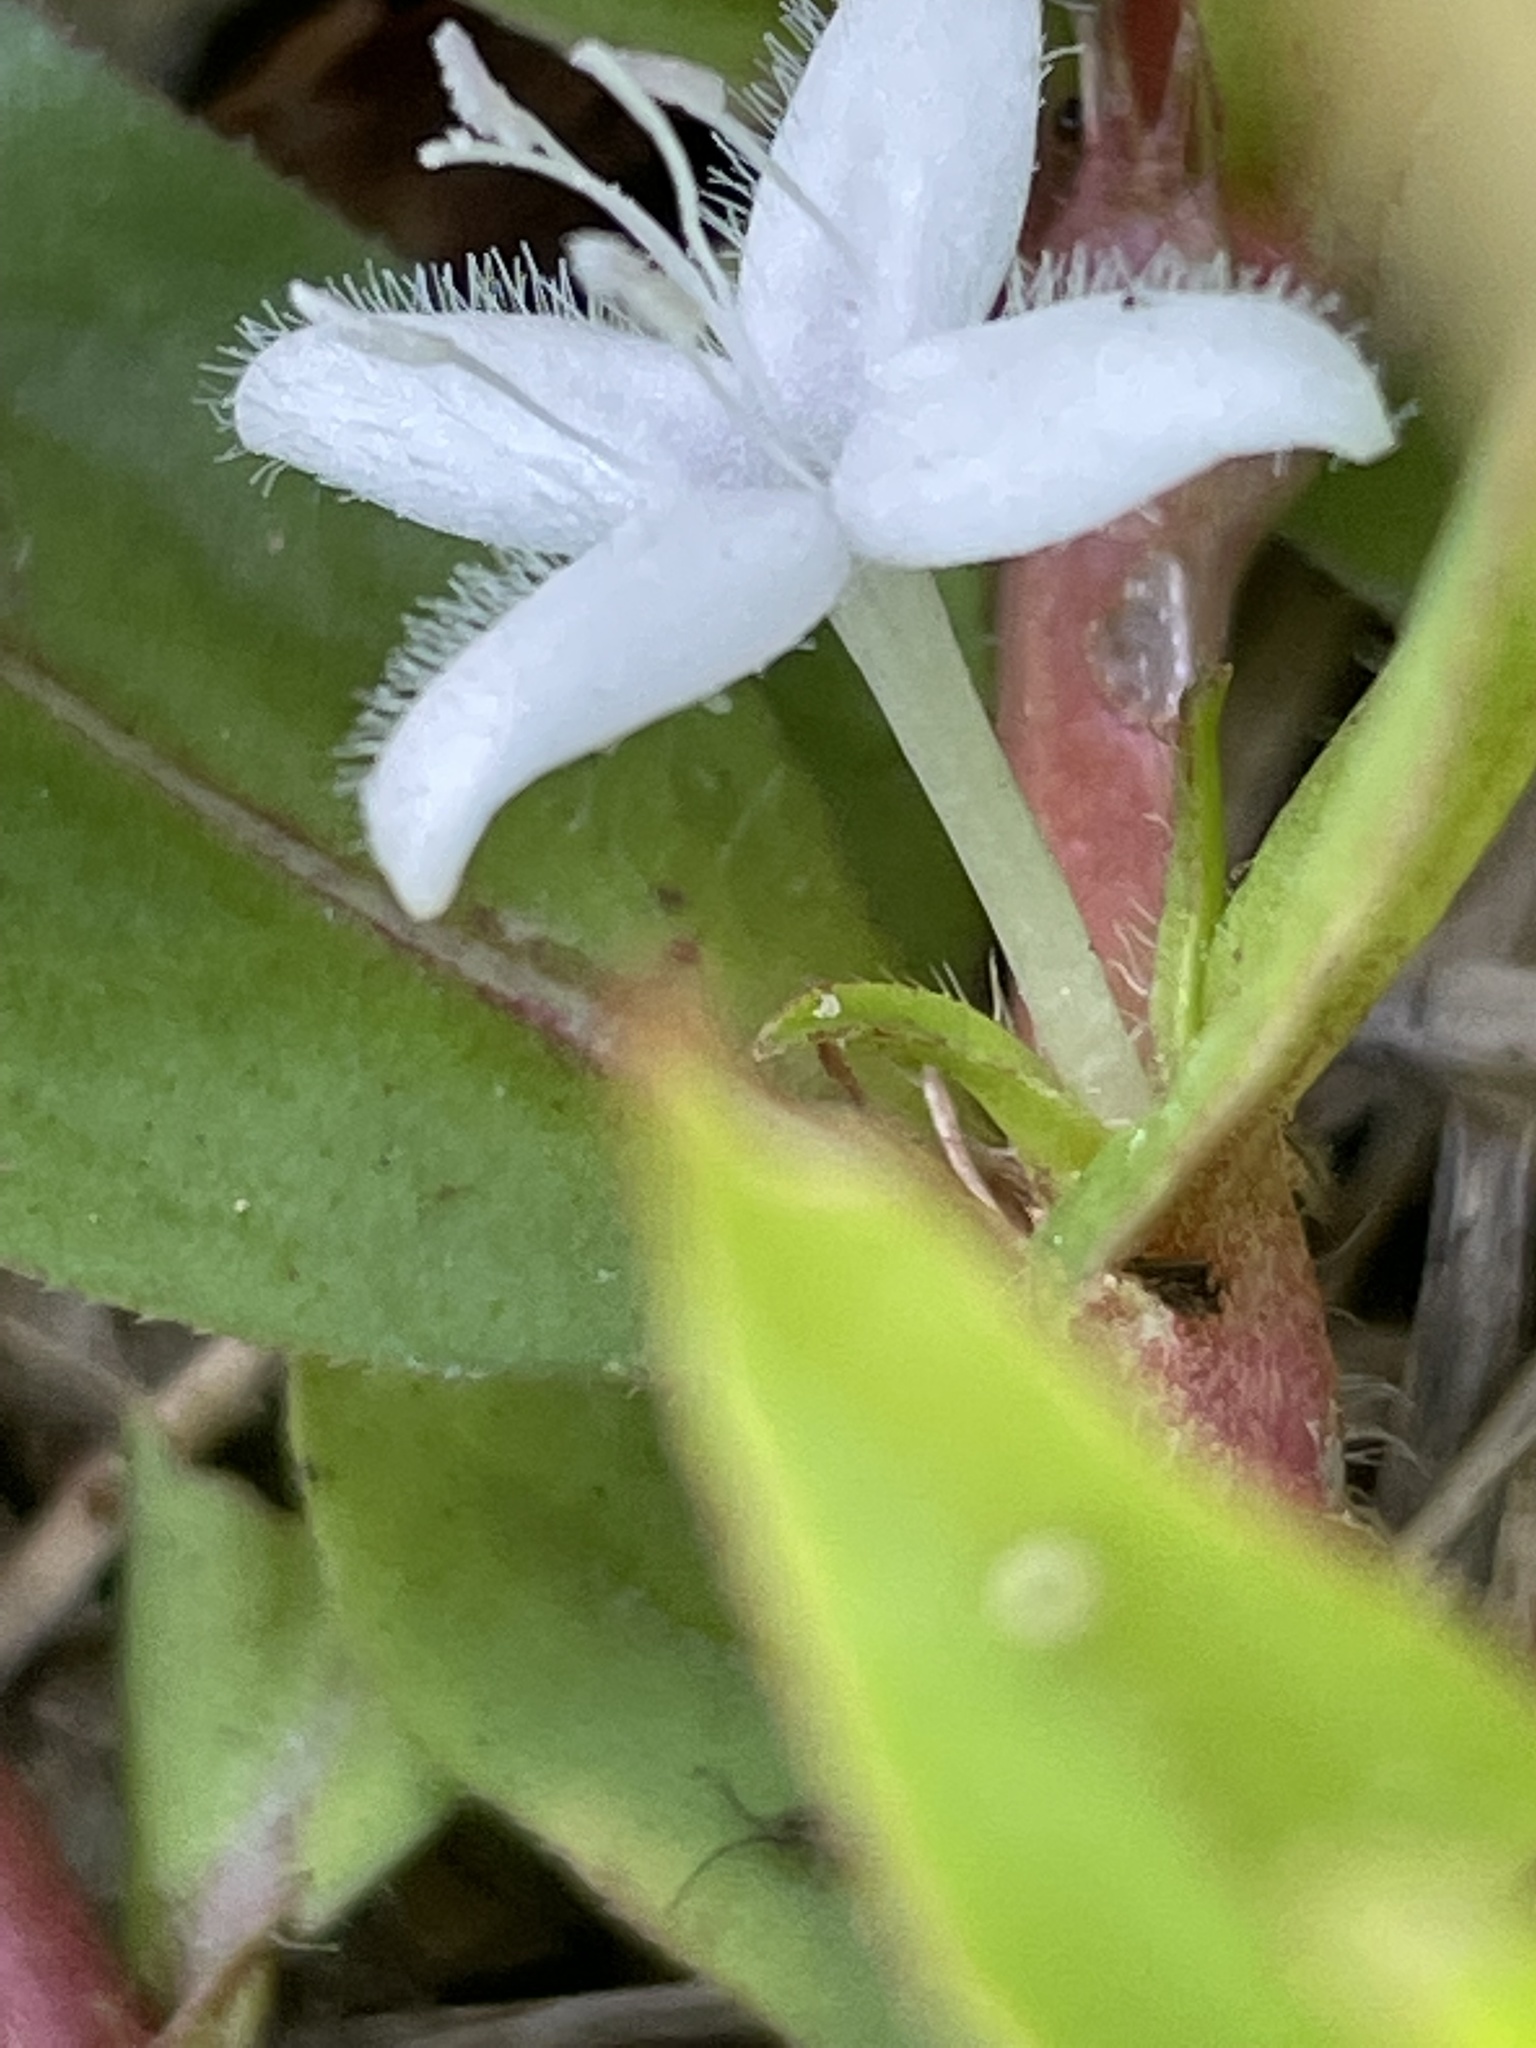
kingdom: Plantae
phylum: Tracheophyta
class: Magnoliopsida
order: Gentianales
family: Rubiaceae
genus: Diodia
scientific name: Diodia virginiana
